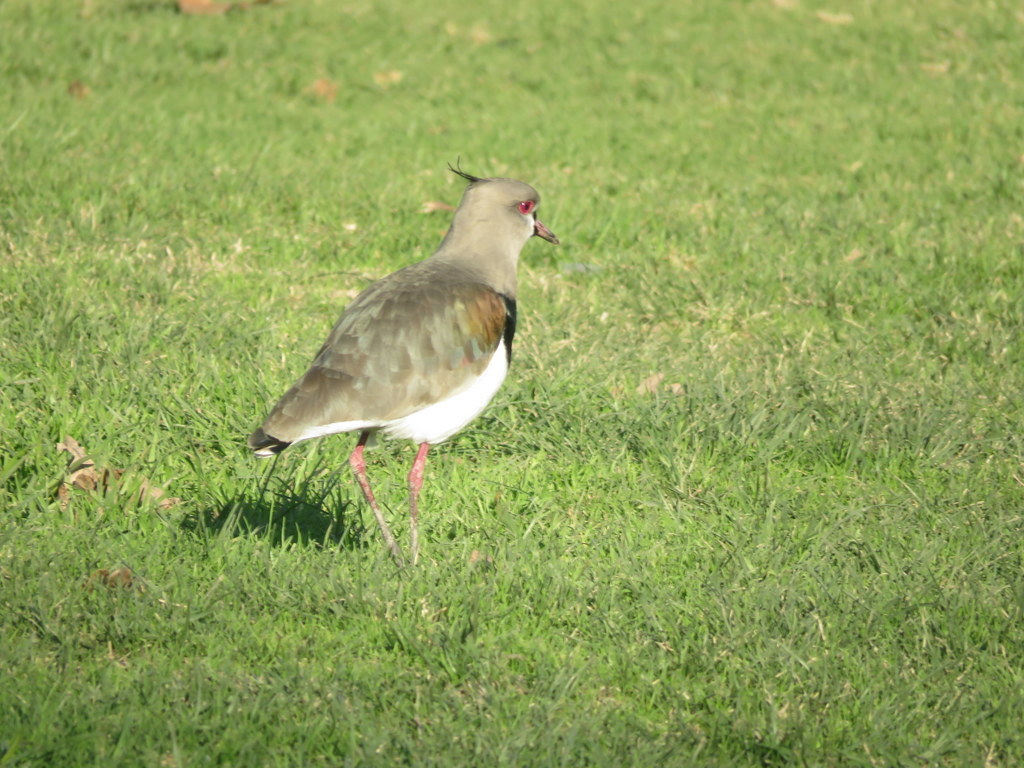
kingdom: Animalia
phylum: Chordata
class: Aves
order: Charadriiformes
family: Charadriidae
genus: Vanellus
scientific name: Vanellus chilensis
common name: Southern lapwing
